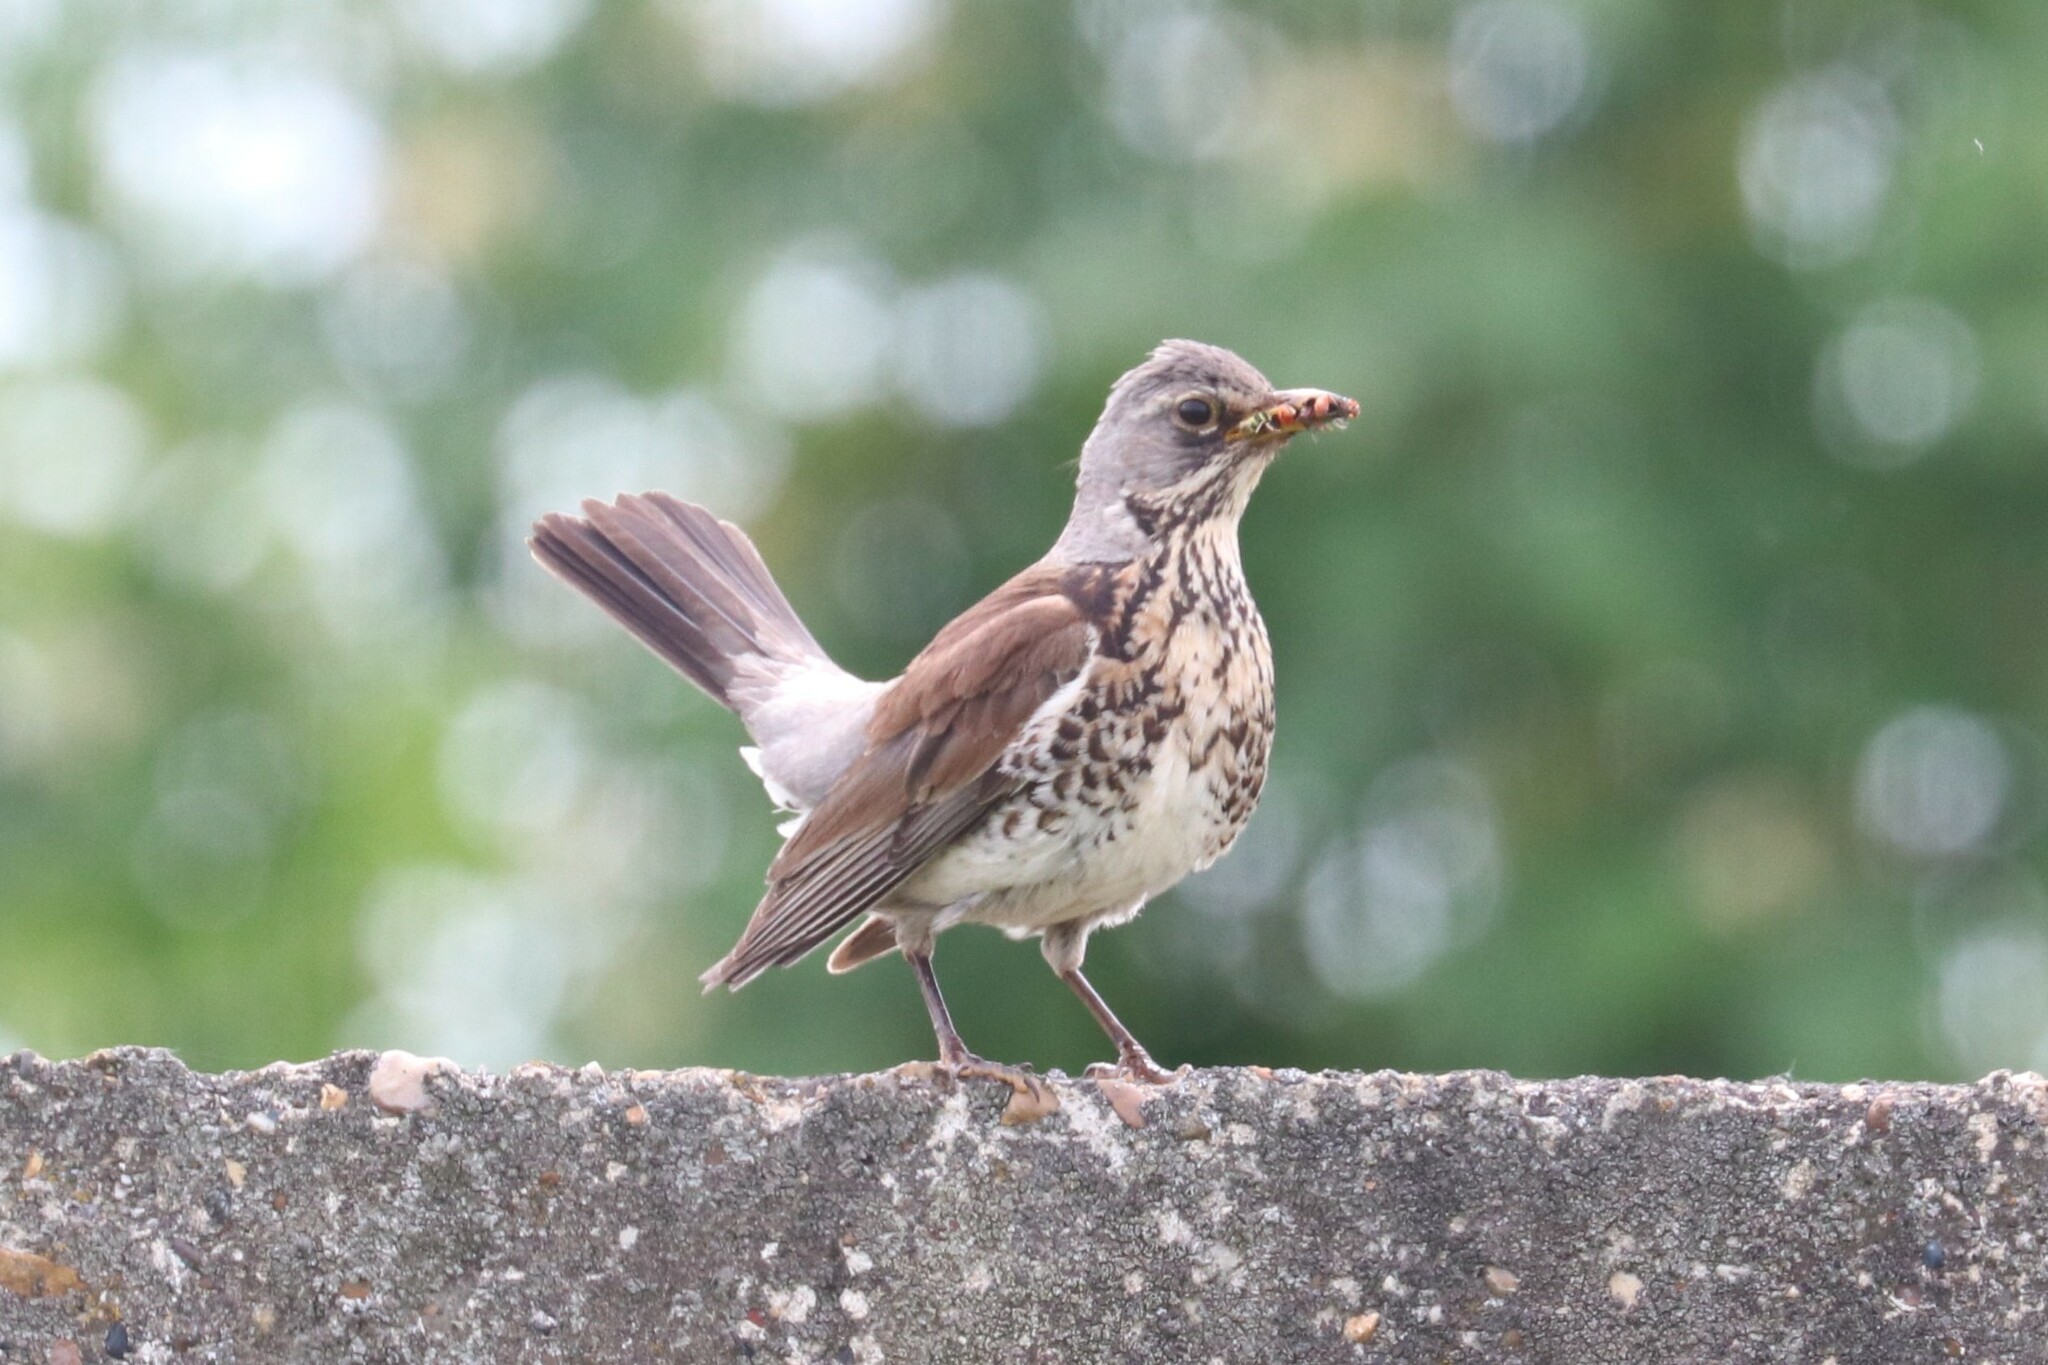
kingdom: Animalia
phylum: Chordata
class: Aves
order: Passeriformes
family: Turdidae
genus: Turdus
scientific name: Turdus pilaris
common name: Fieldfare
